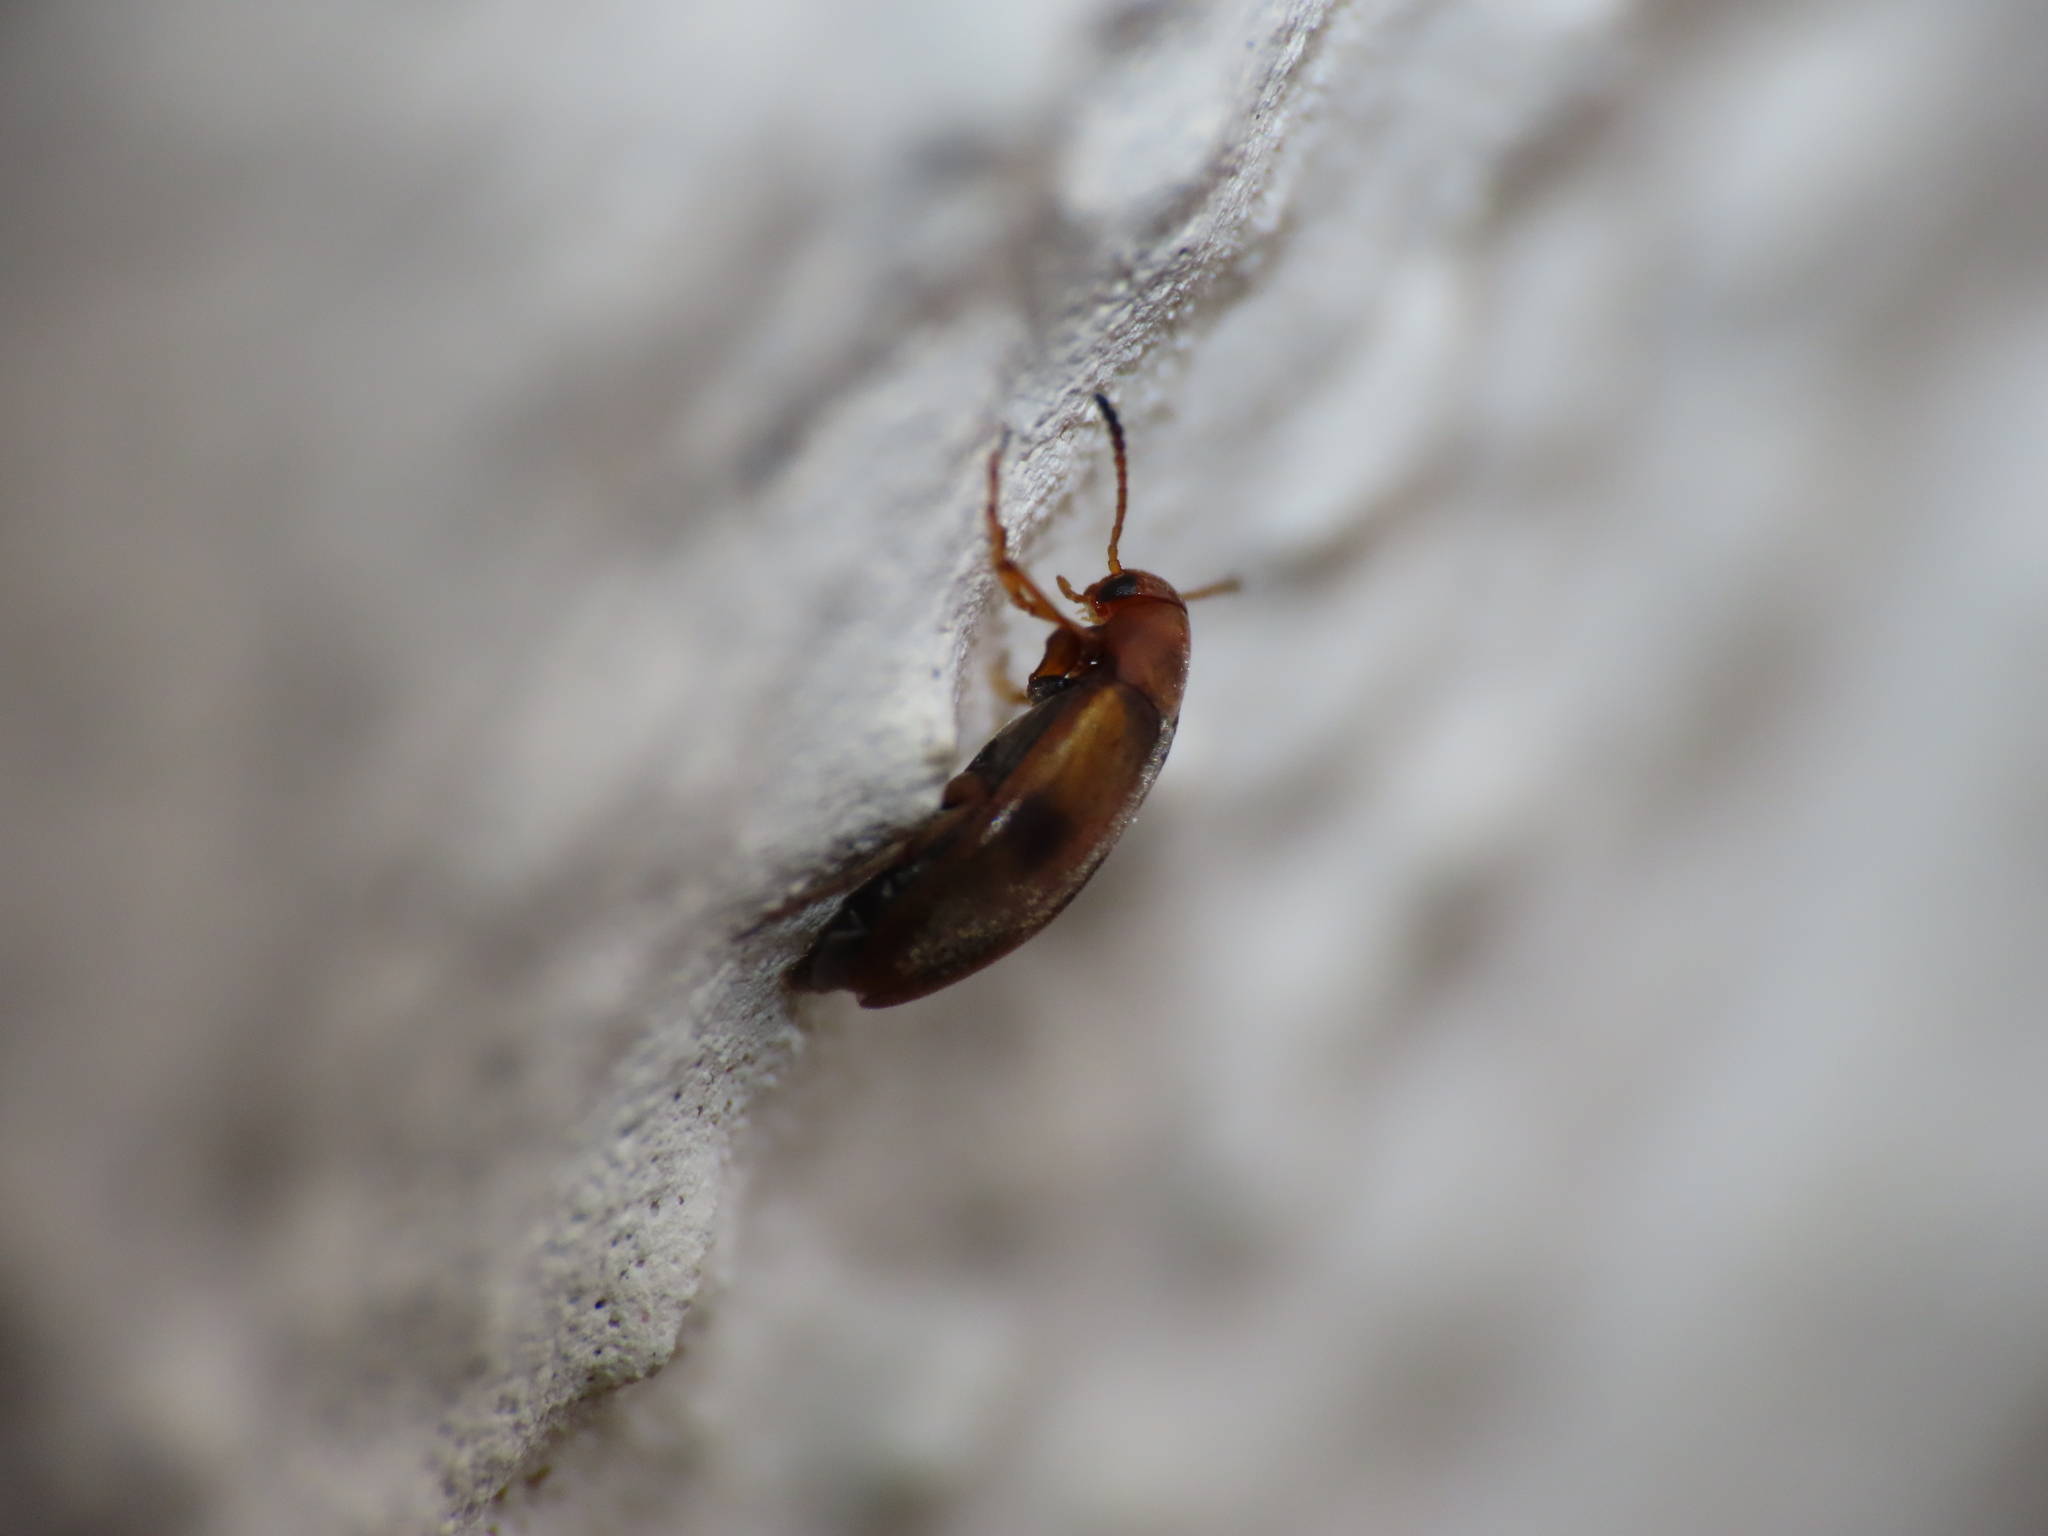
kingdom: Animalia
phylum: Arthropoda
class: Insecta
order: Coleoptera
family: Scraptiidae
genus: Anaspis
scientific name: Anaspis maculata
